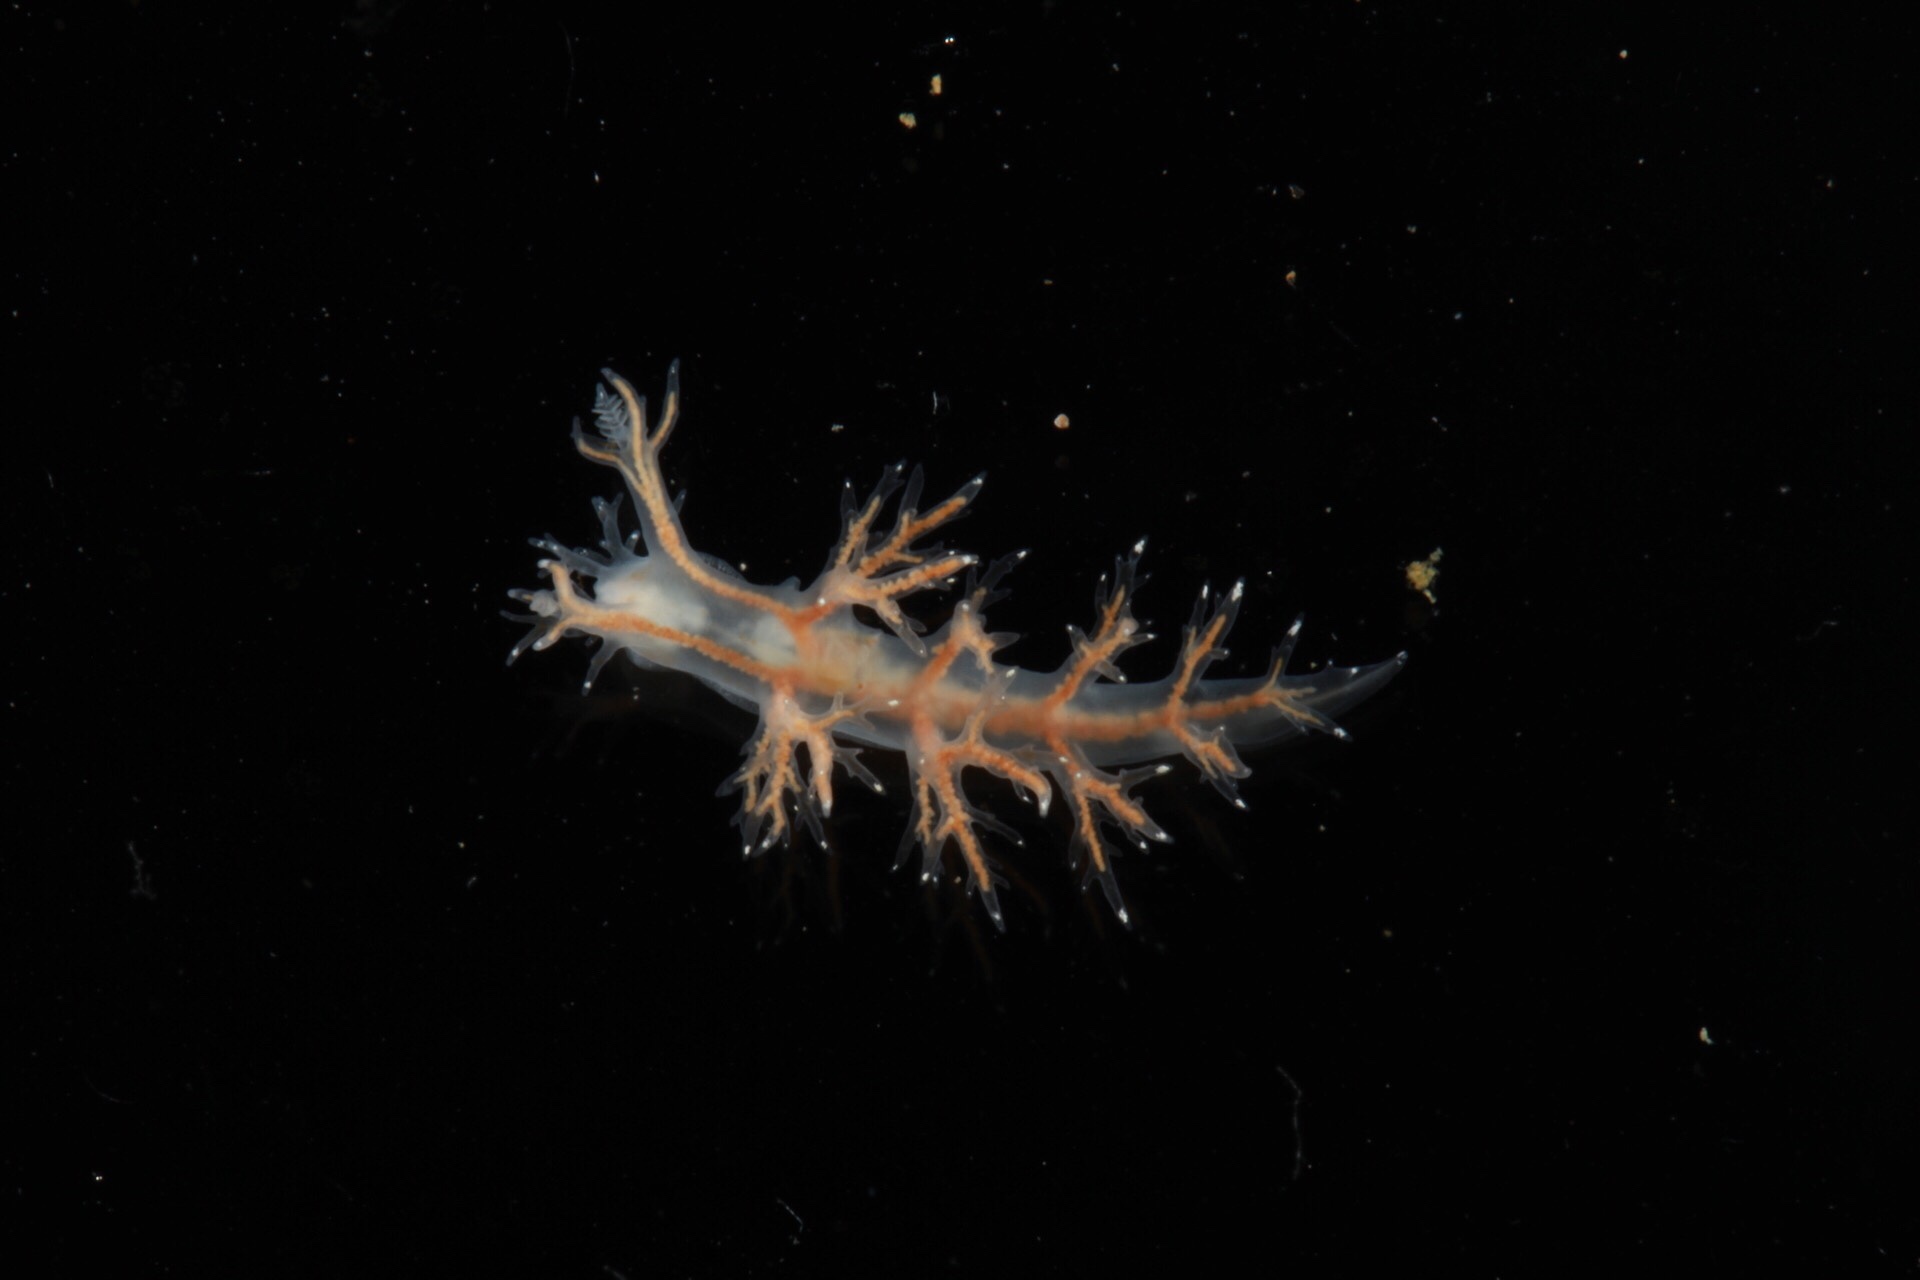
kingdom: Animalia
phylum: Mollusca
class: Gastropoda
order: Nudibranchia
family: Dendronotidae
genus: Dendronotus
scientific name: Dendronotus keatleyae
